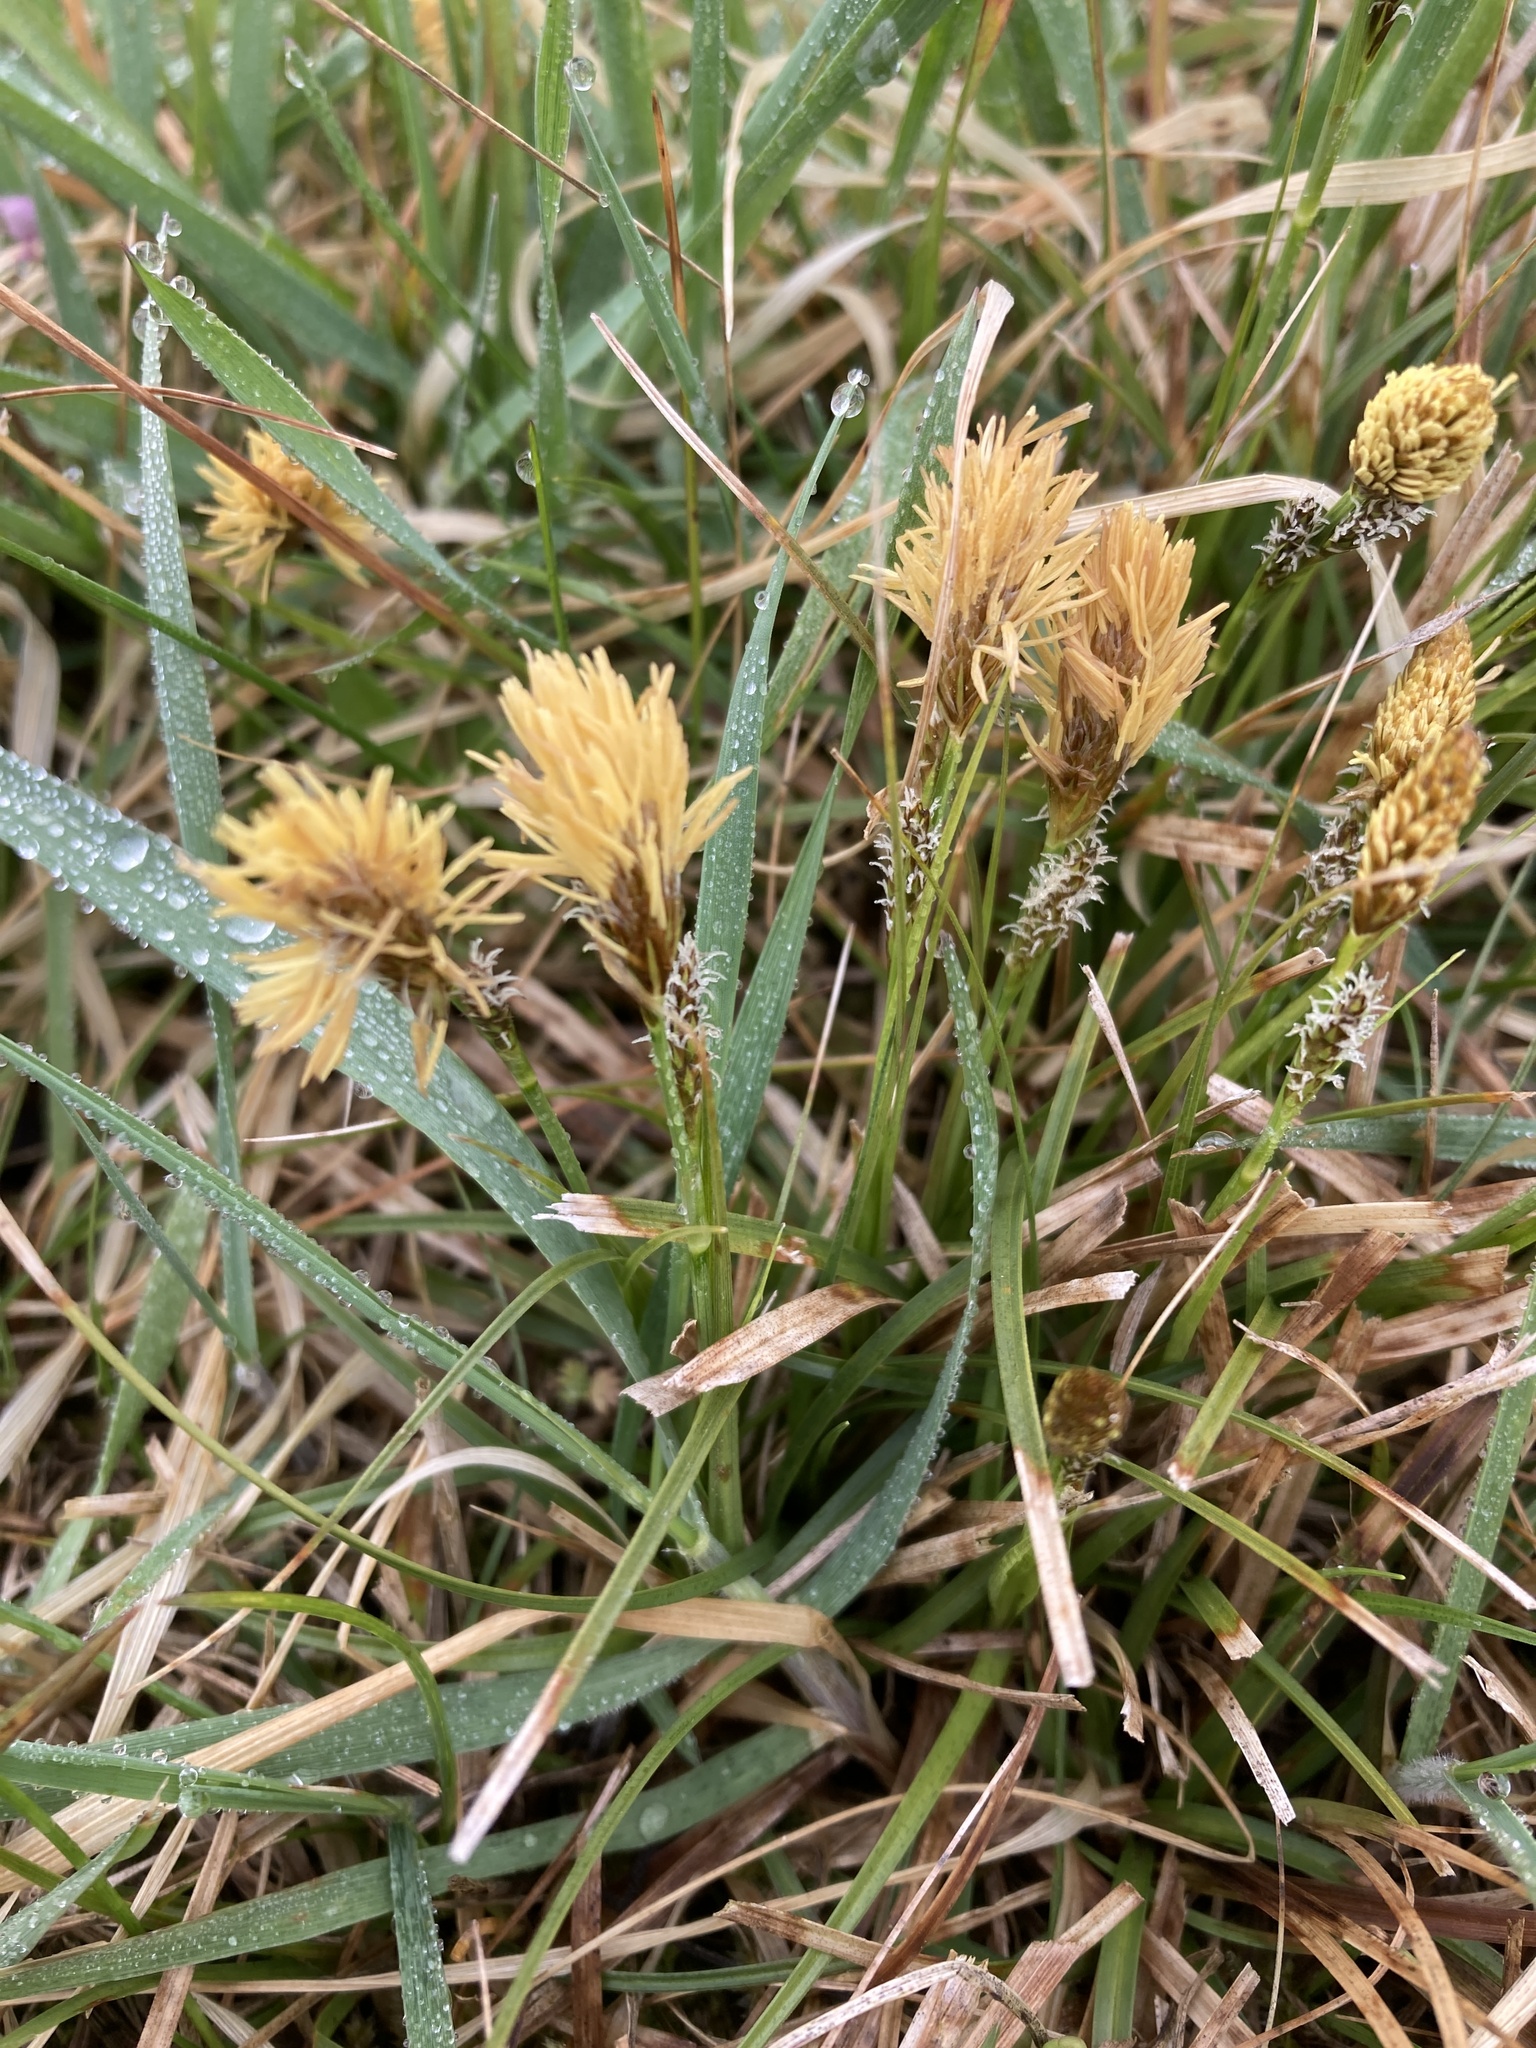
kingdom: Plantae
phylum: Tracheophyta
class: Liliopsida
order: Poales
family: Cyperaceae
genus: Carex
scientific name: Carex caryophyllea
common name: Spring sedge
